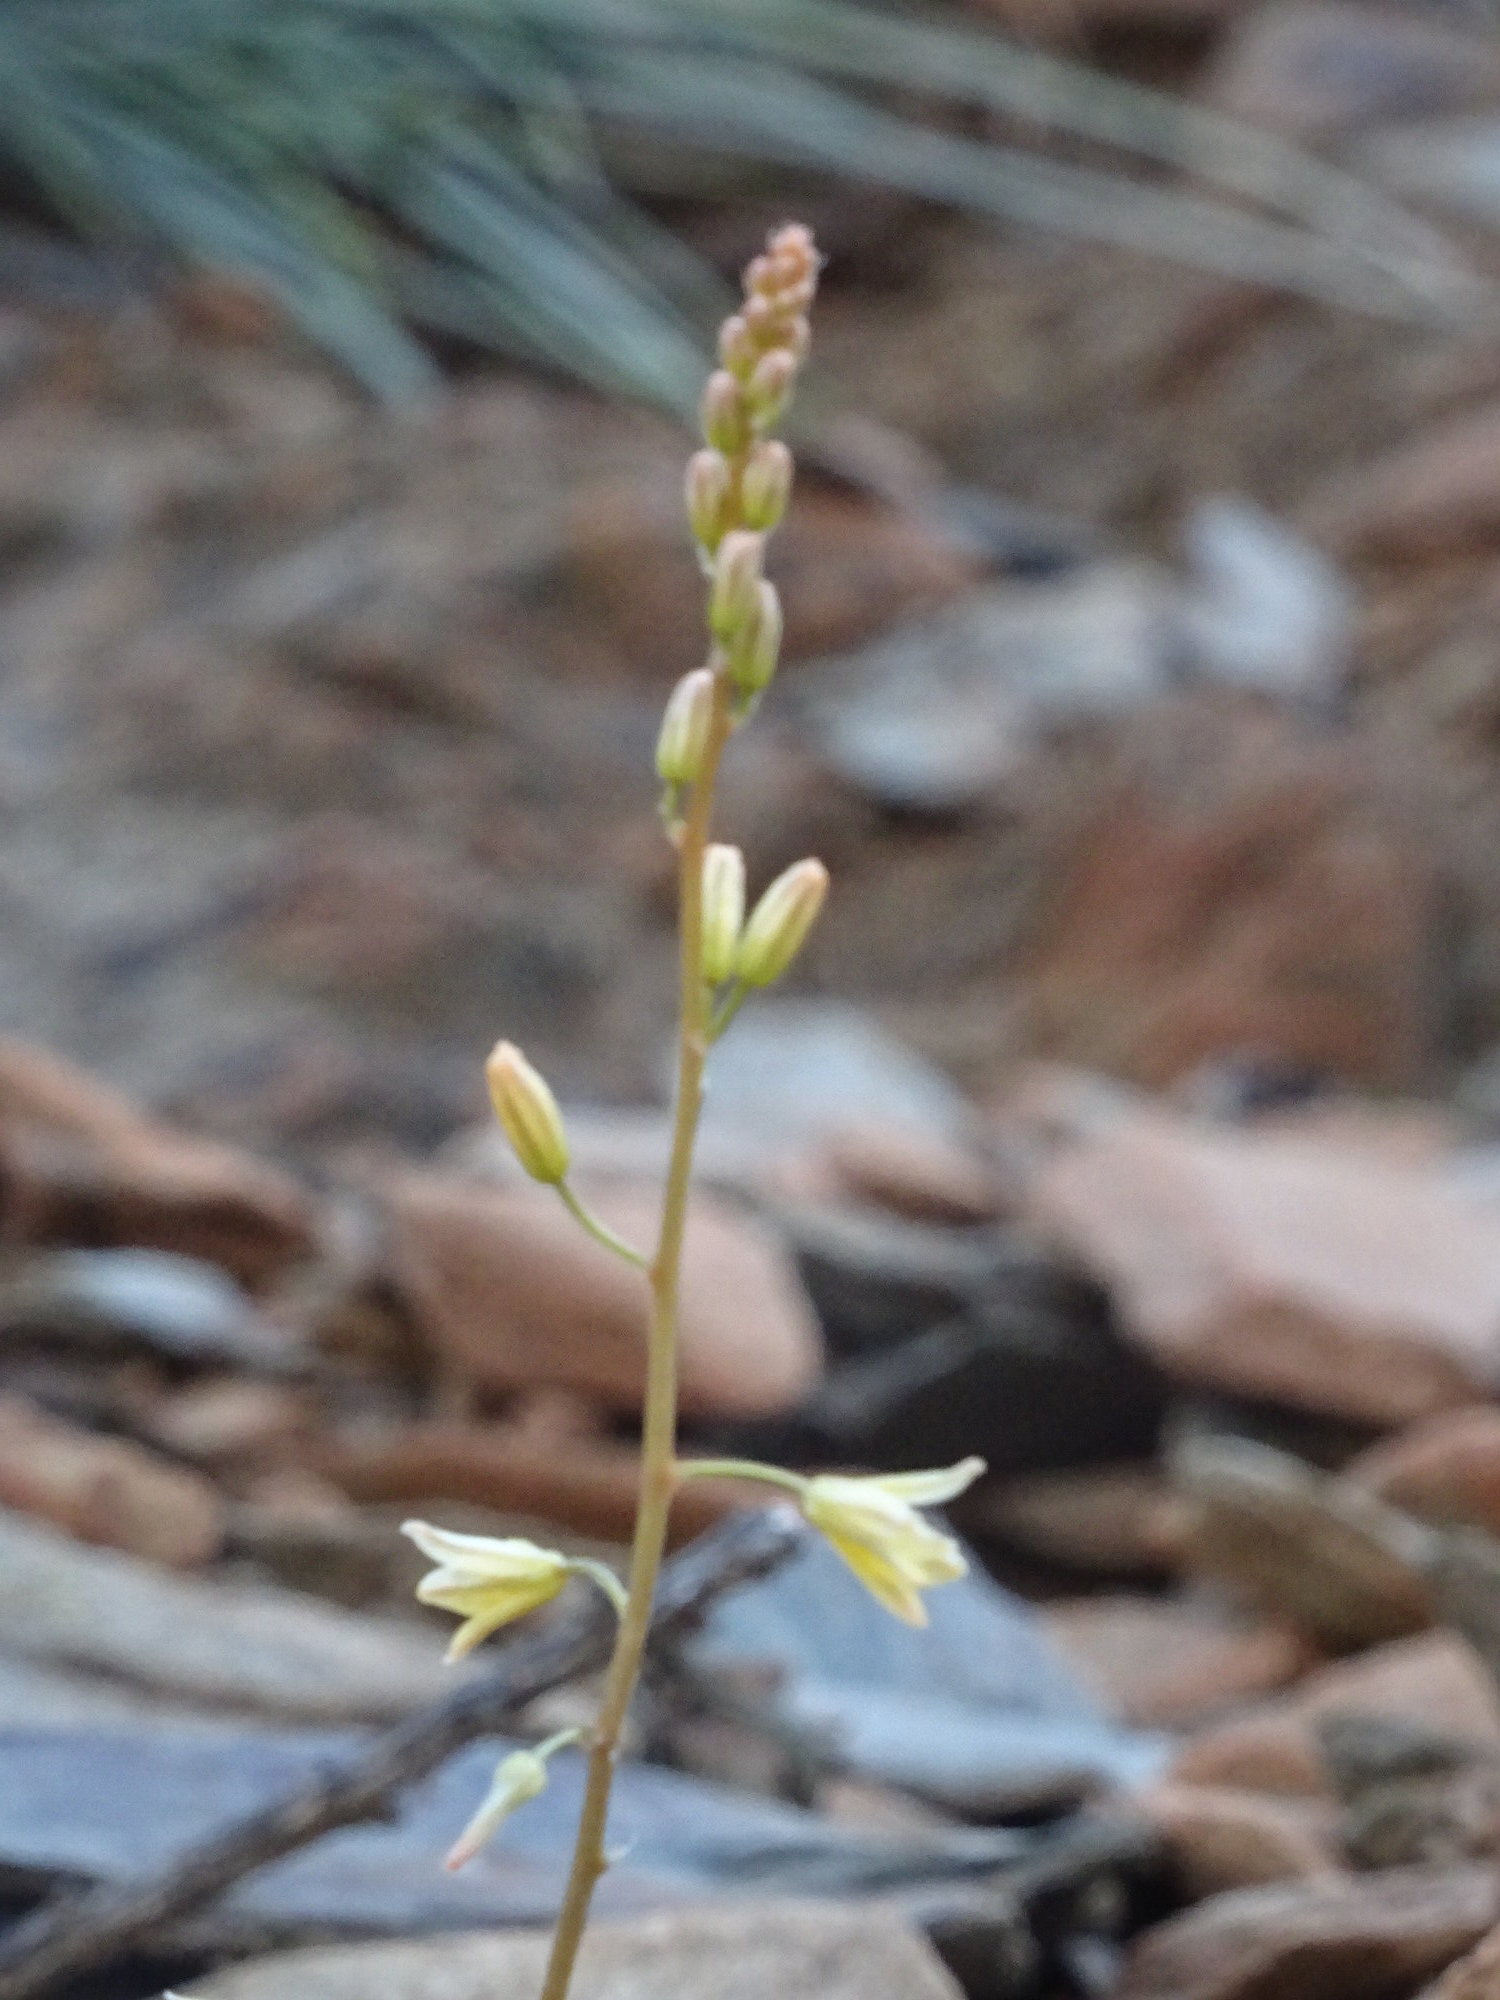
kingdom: Plantae
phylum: Tracheophyta
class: Liliopsida
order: Asparagales
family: Asphodelaceae
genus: Bulbine
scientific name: Bulbine spongiosa
